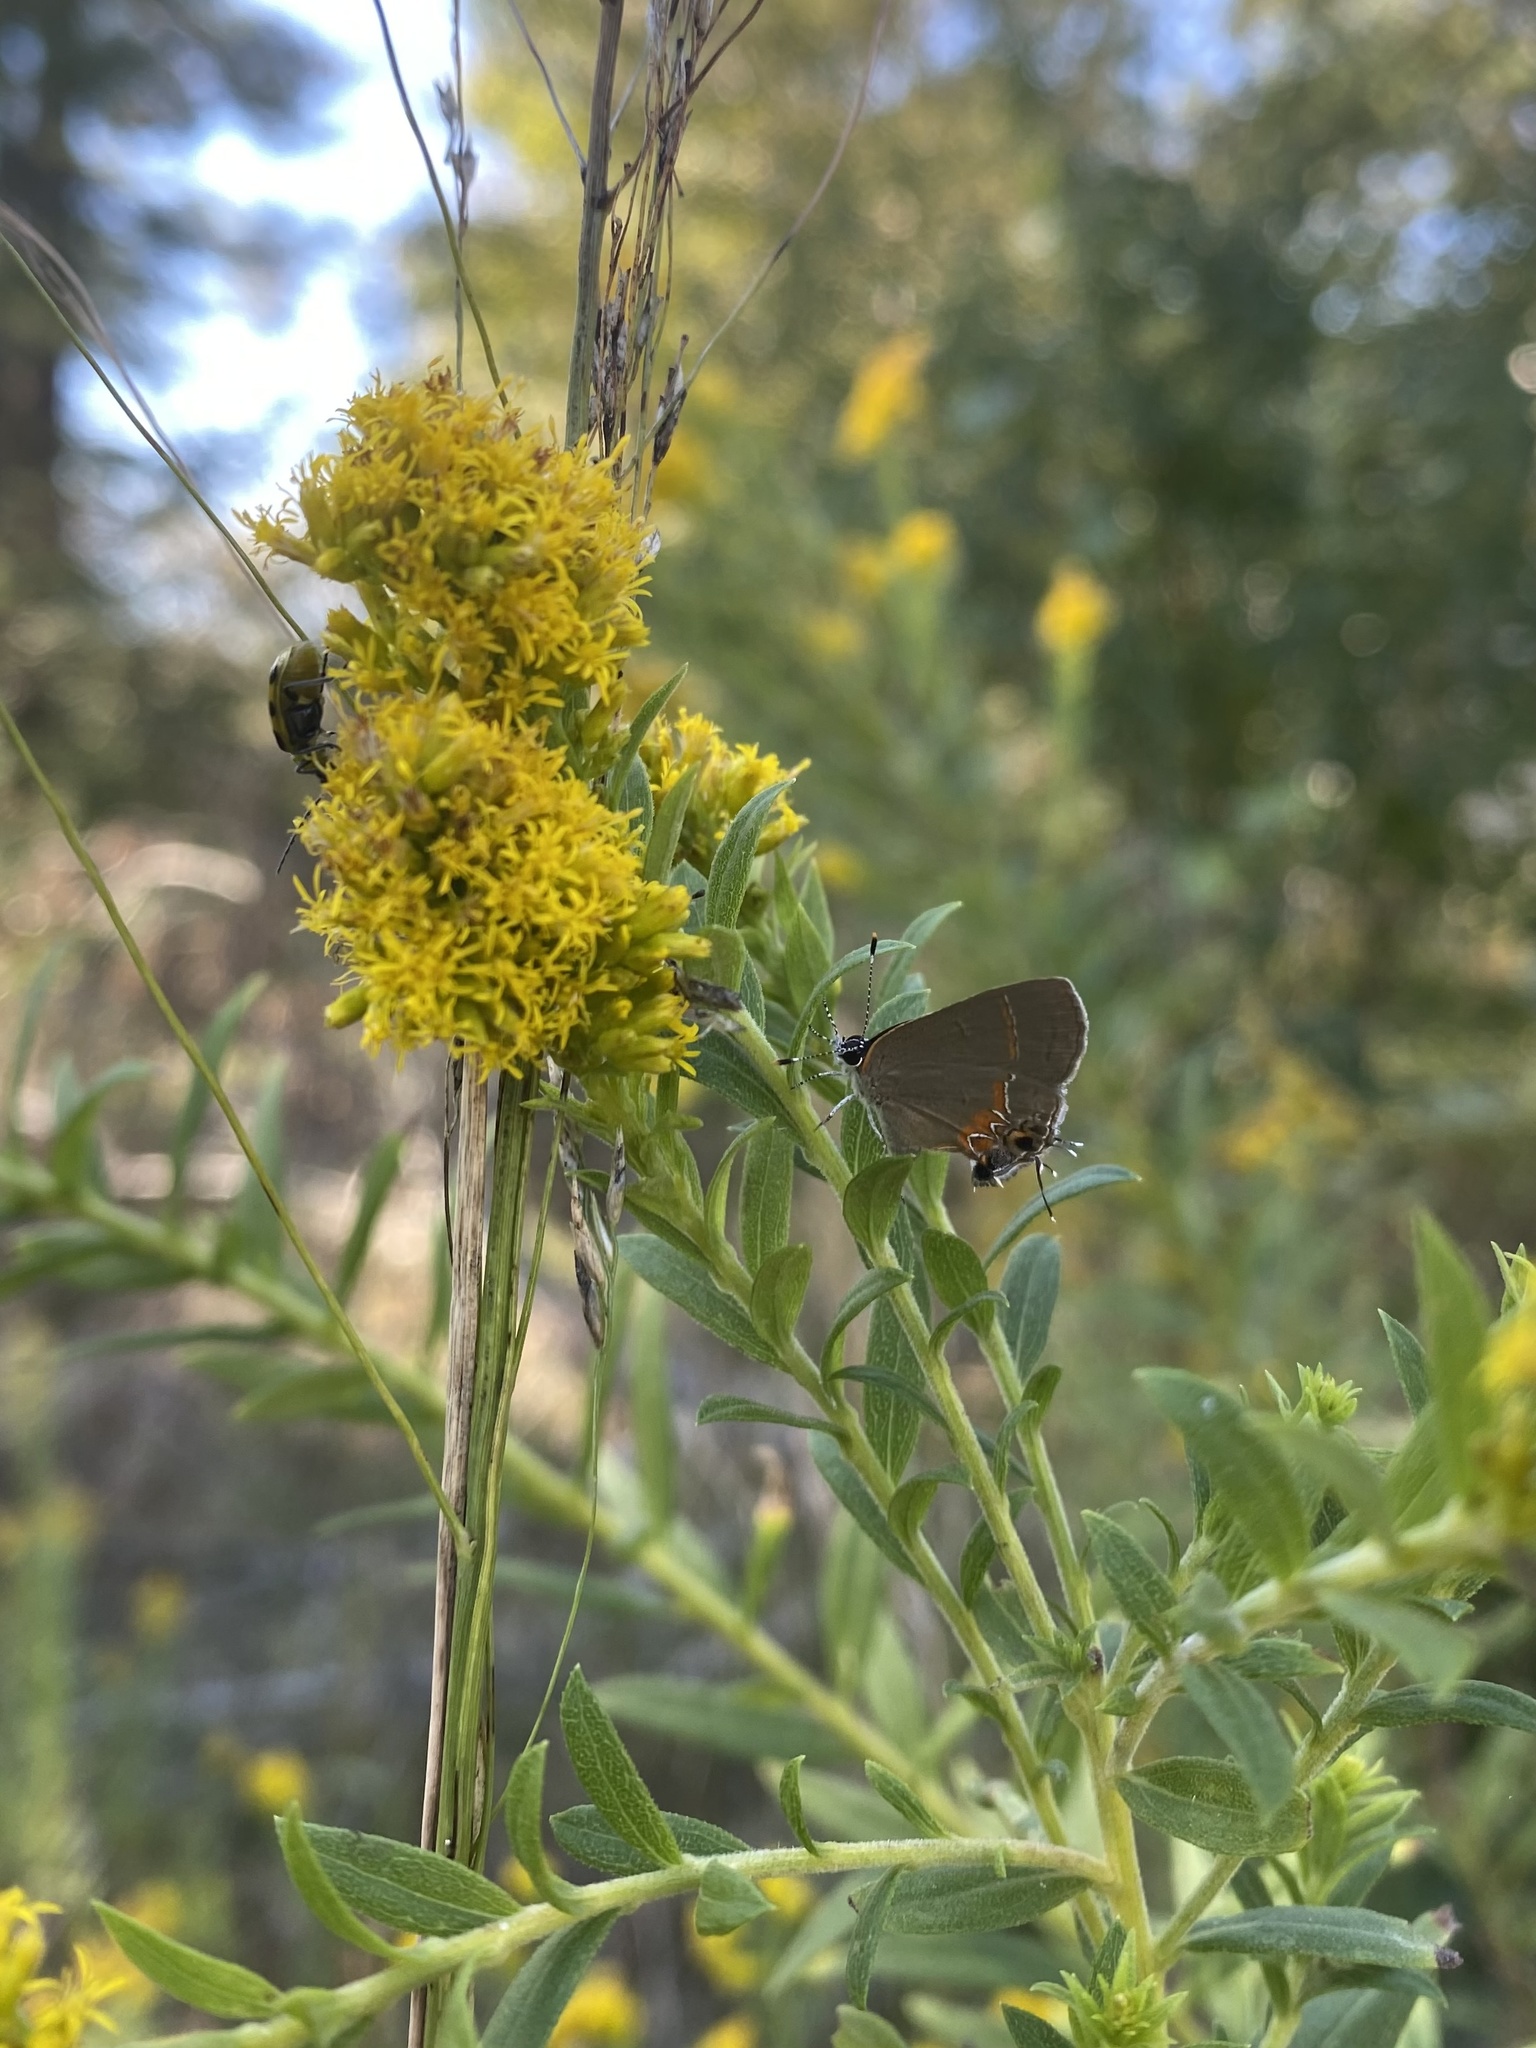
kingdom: Animalia
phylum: Arthropoda
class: Insecta
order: Lepidoptera
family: Lycaenidae
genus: Calycopis
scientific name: Calycopis cecrops
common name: Red-banded hairstreak
